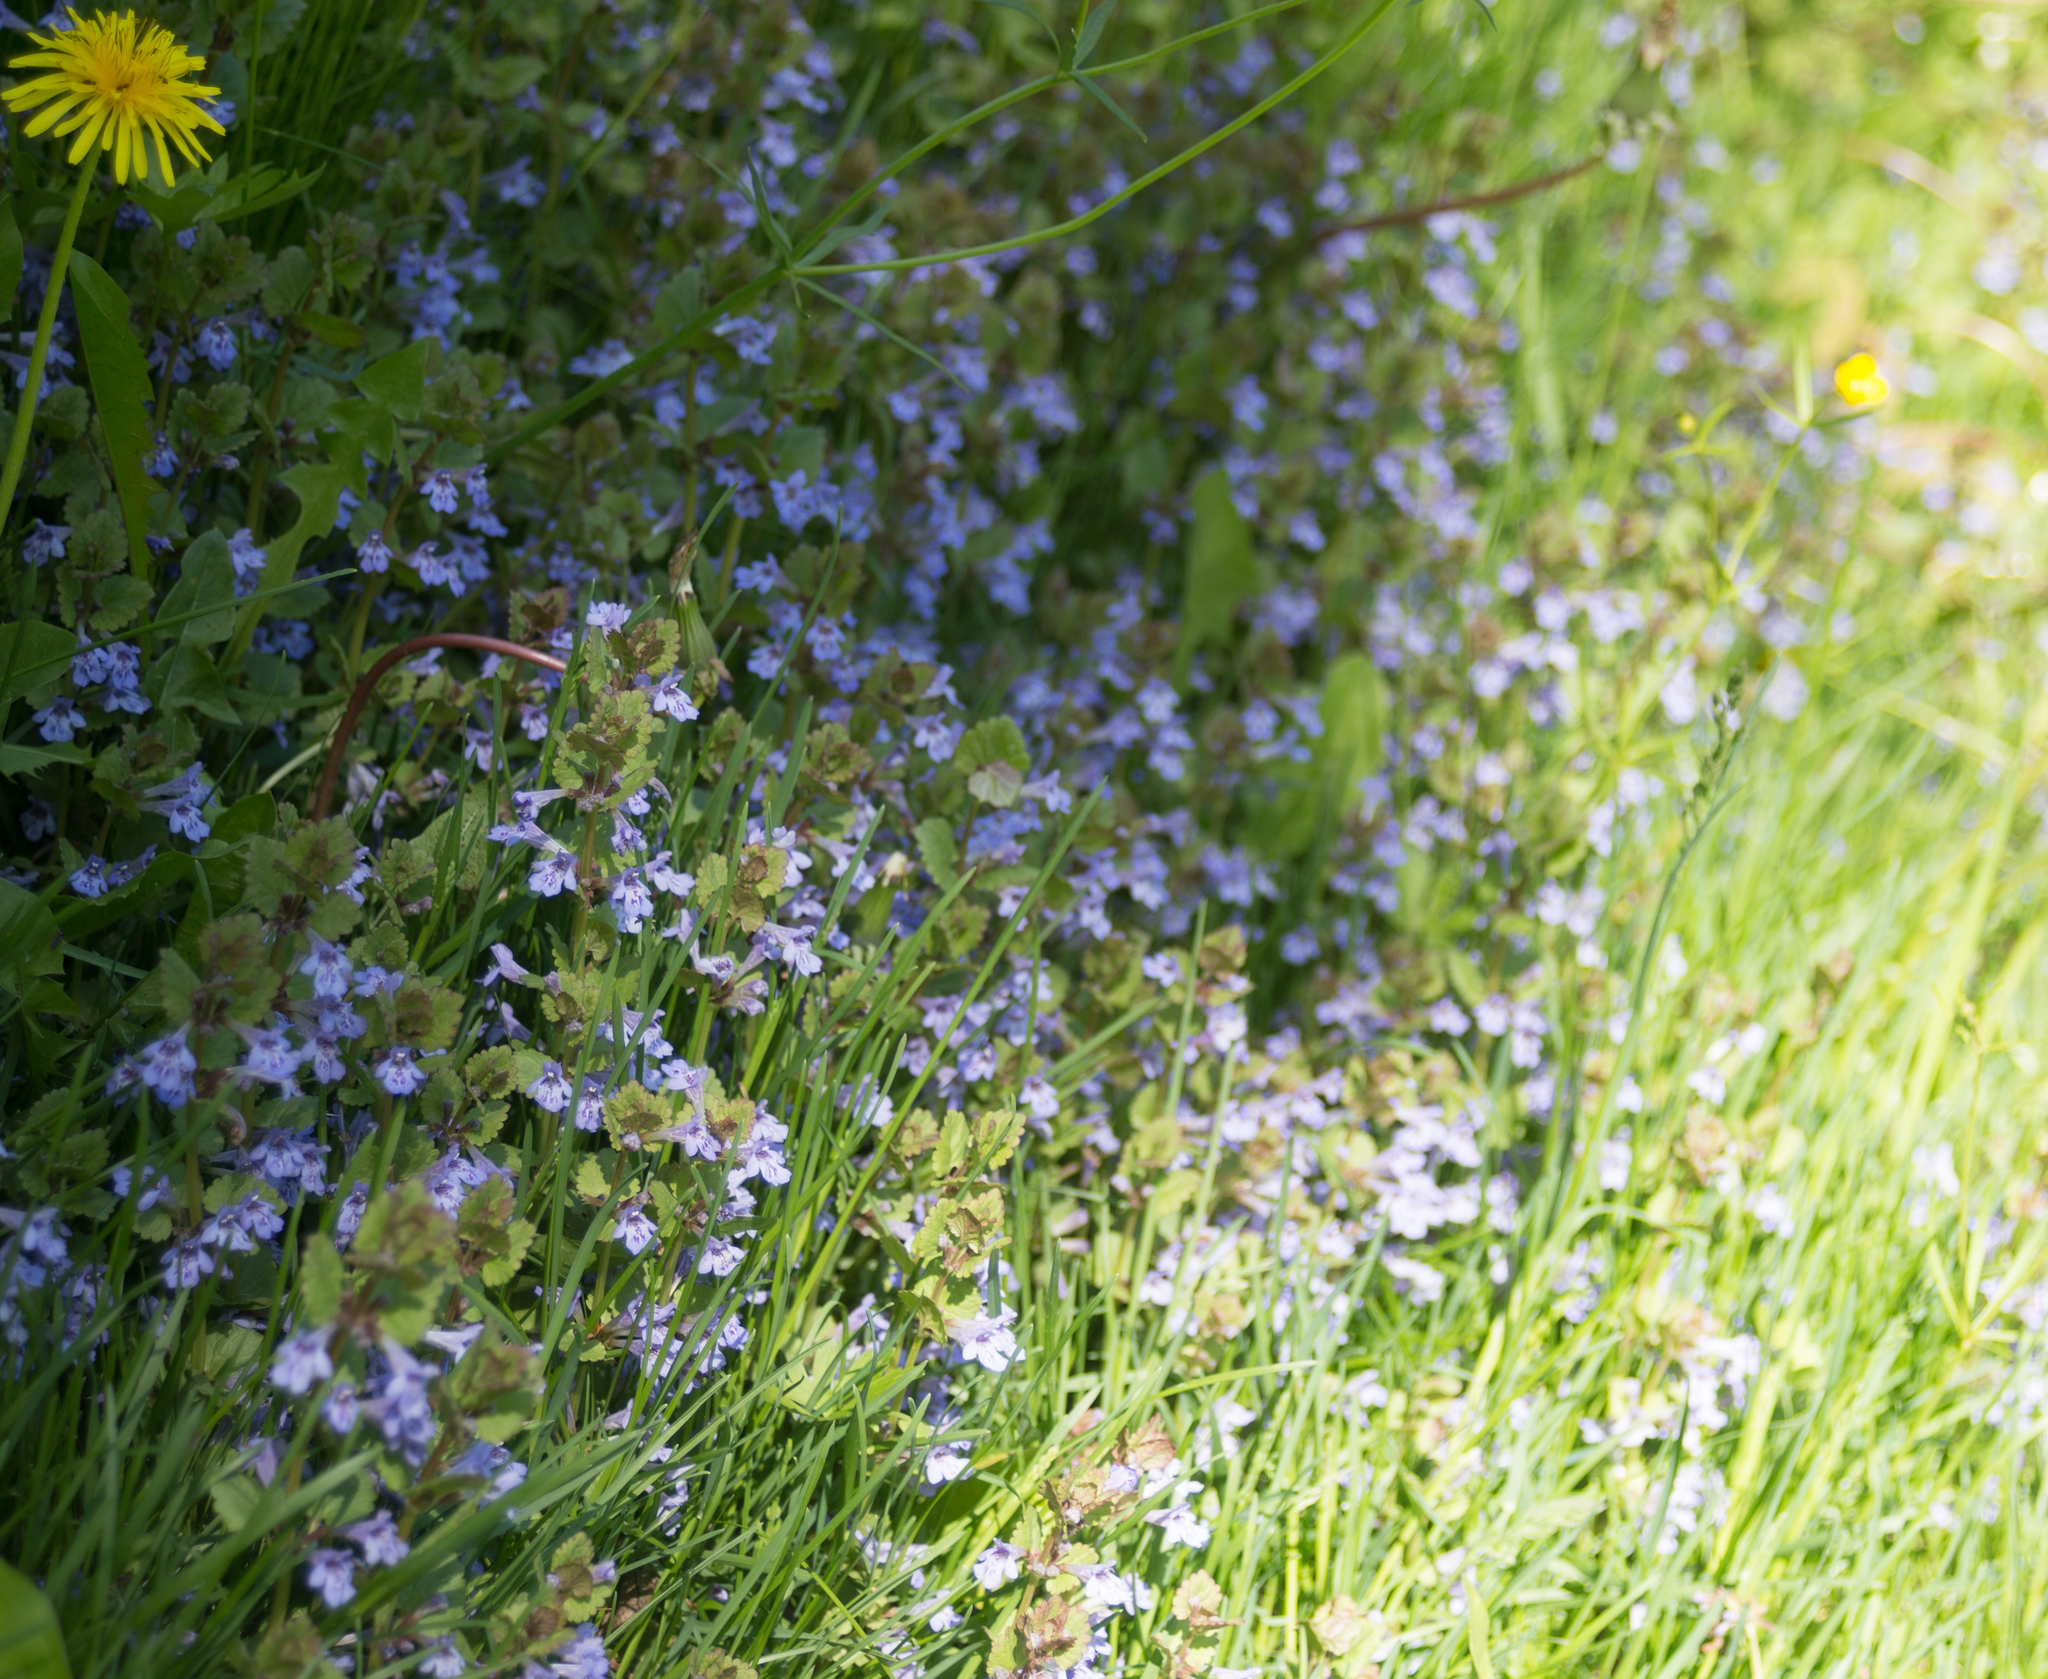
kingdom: Plantae
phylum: Tracheophyta
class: Magnoliopsida
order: Lamiales
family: Lamiaceae
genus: Glechoma
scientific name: Glechoma hederacea
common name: Ground ivy
